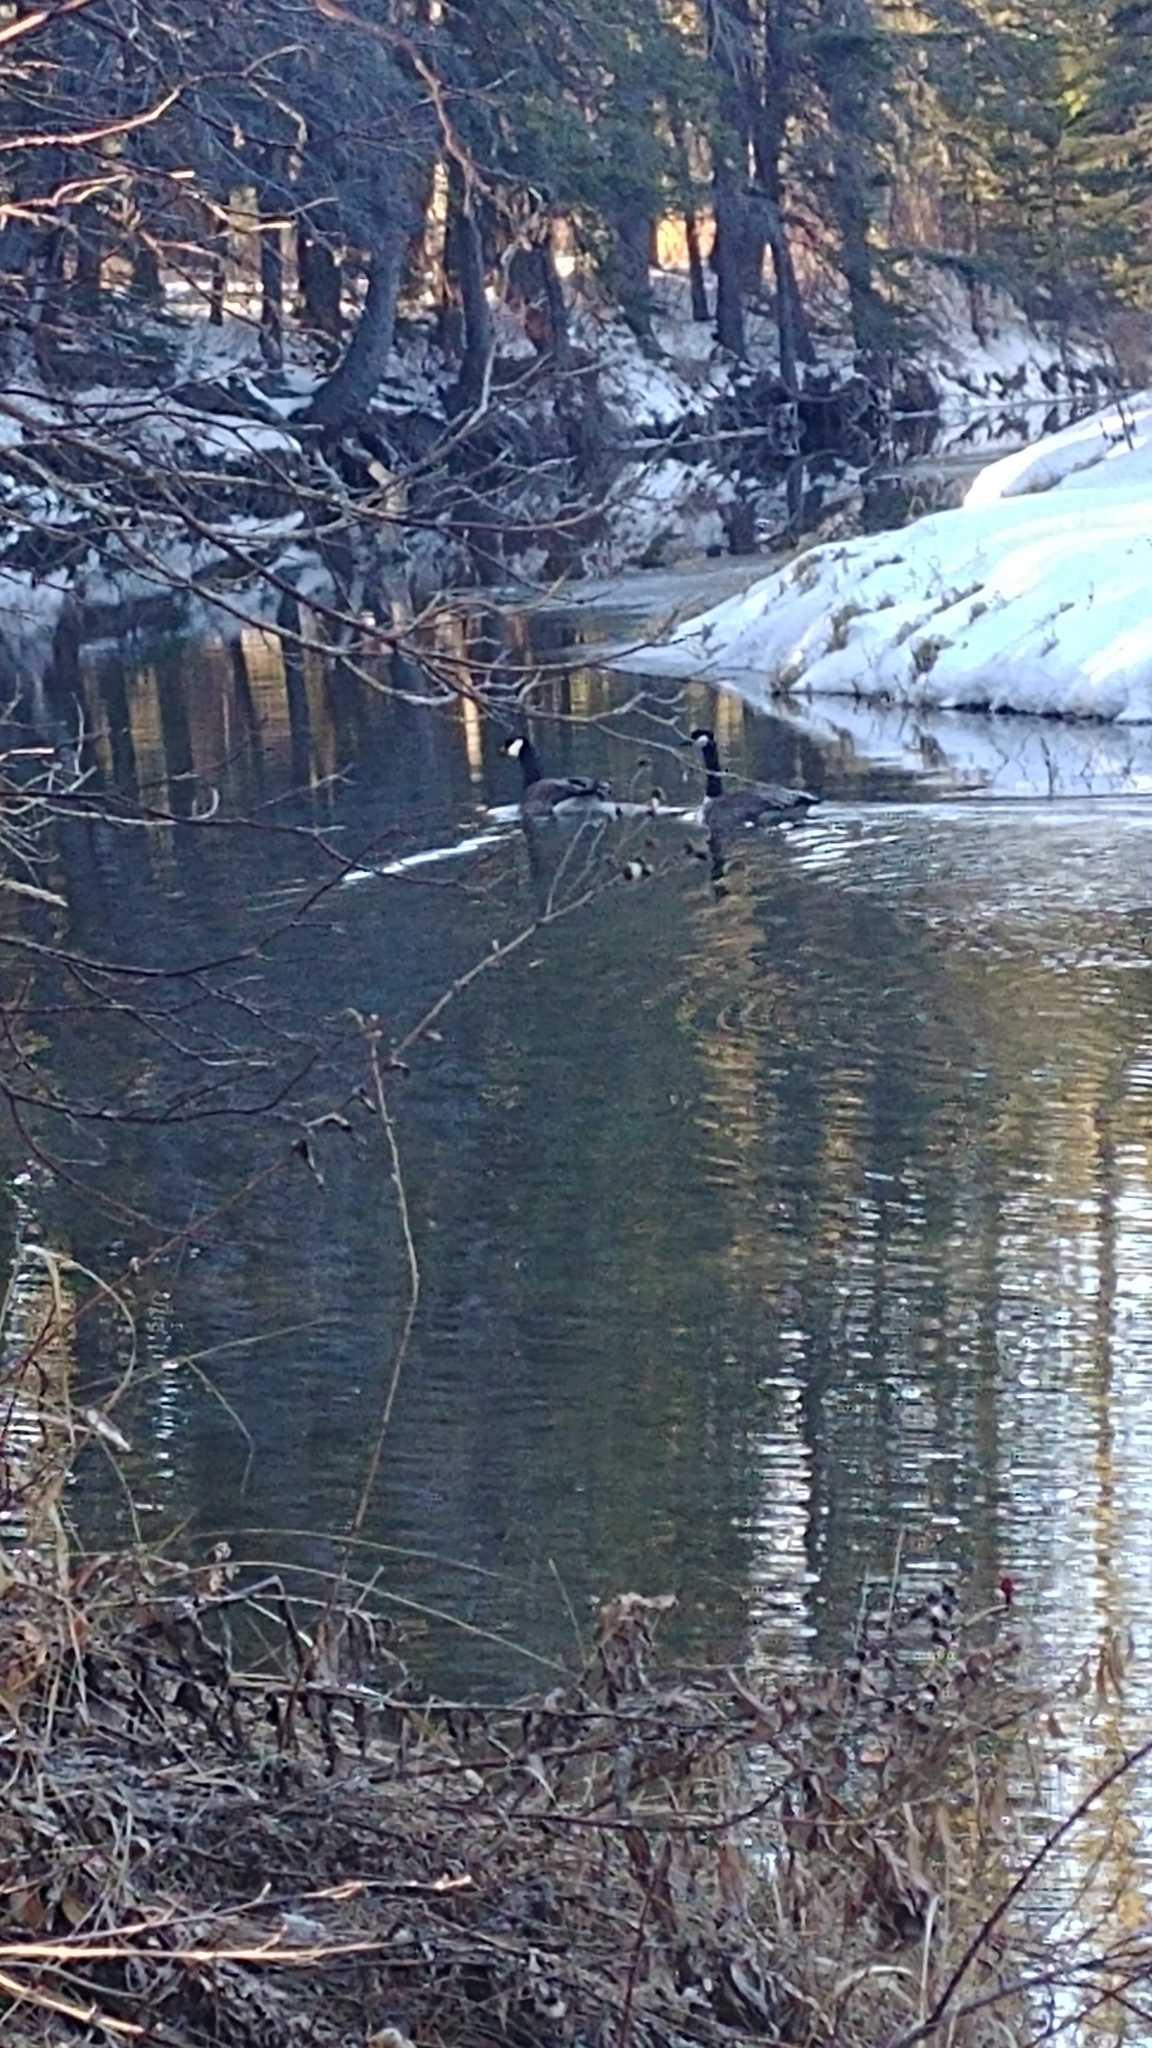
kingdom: Animalia
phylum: Chordata
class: Aves
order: Anseriformes
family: Anatidae
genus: Branta
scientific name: Branta canadensis
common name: Canada goose
